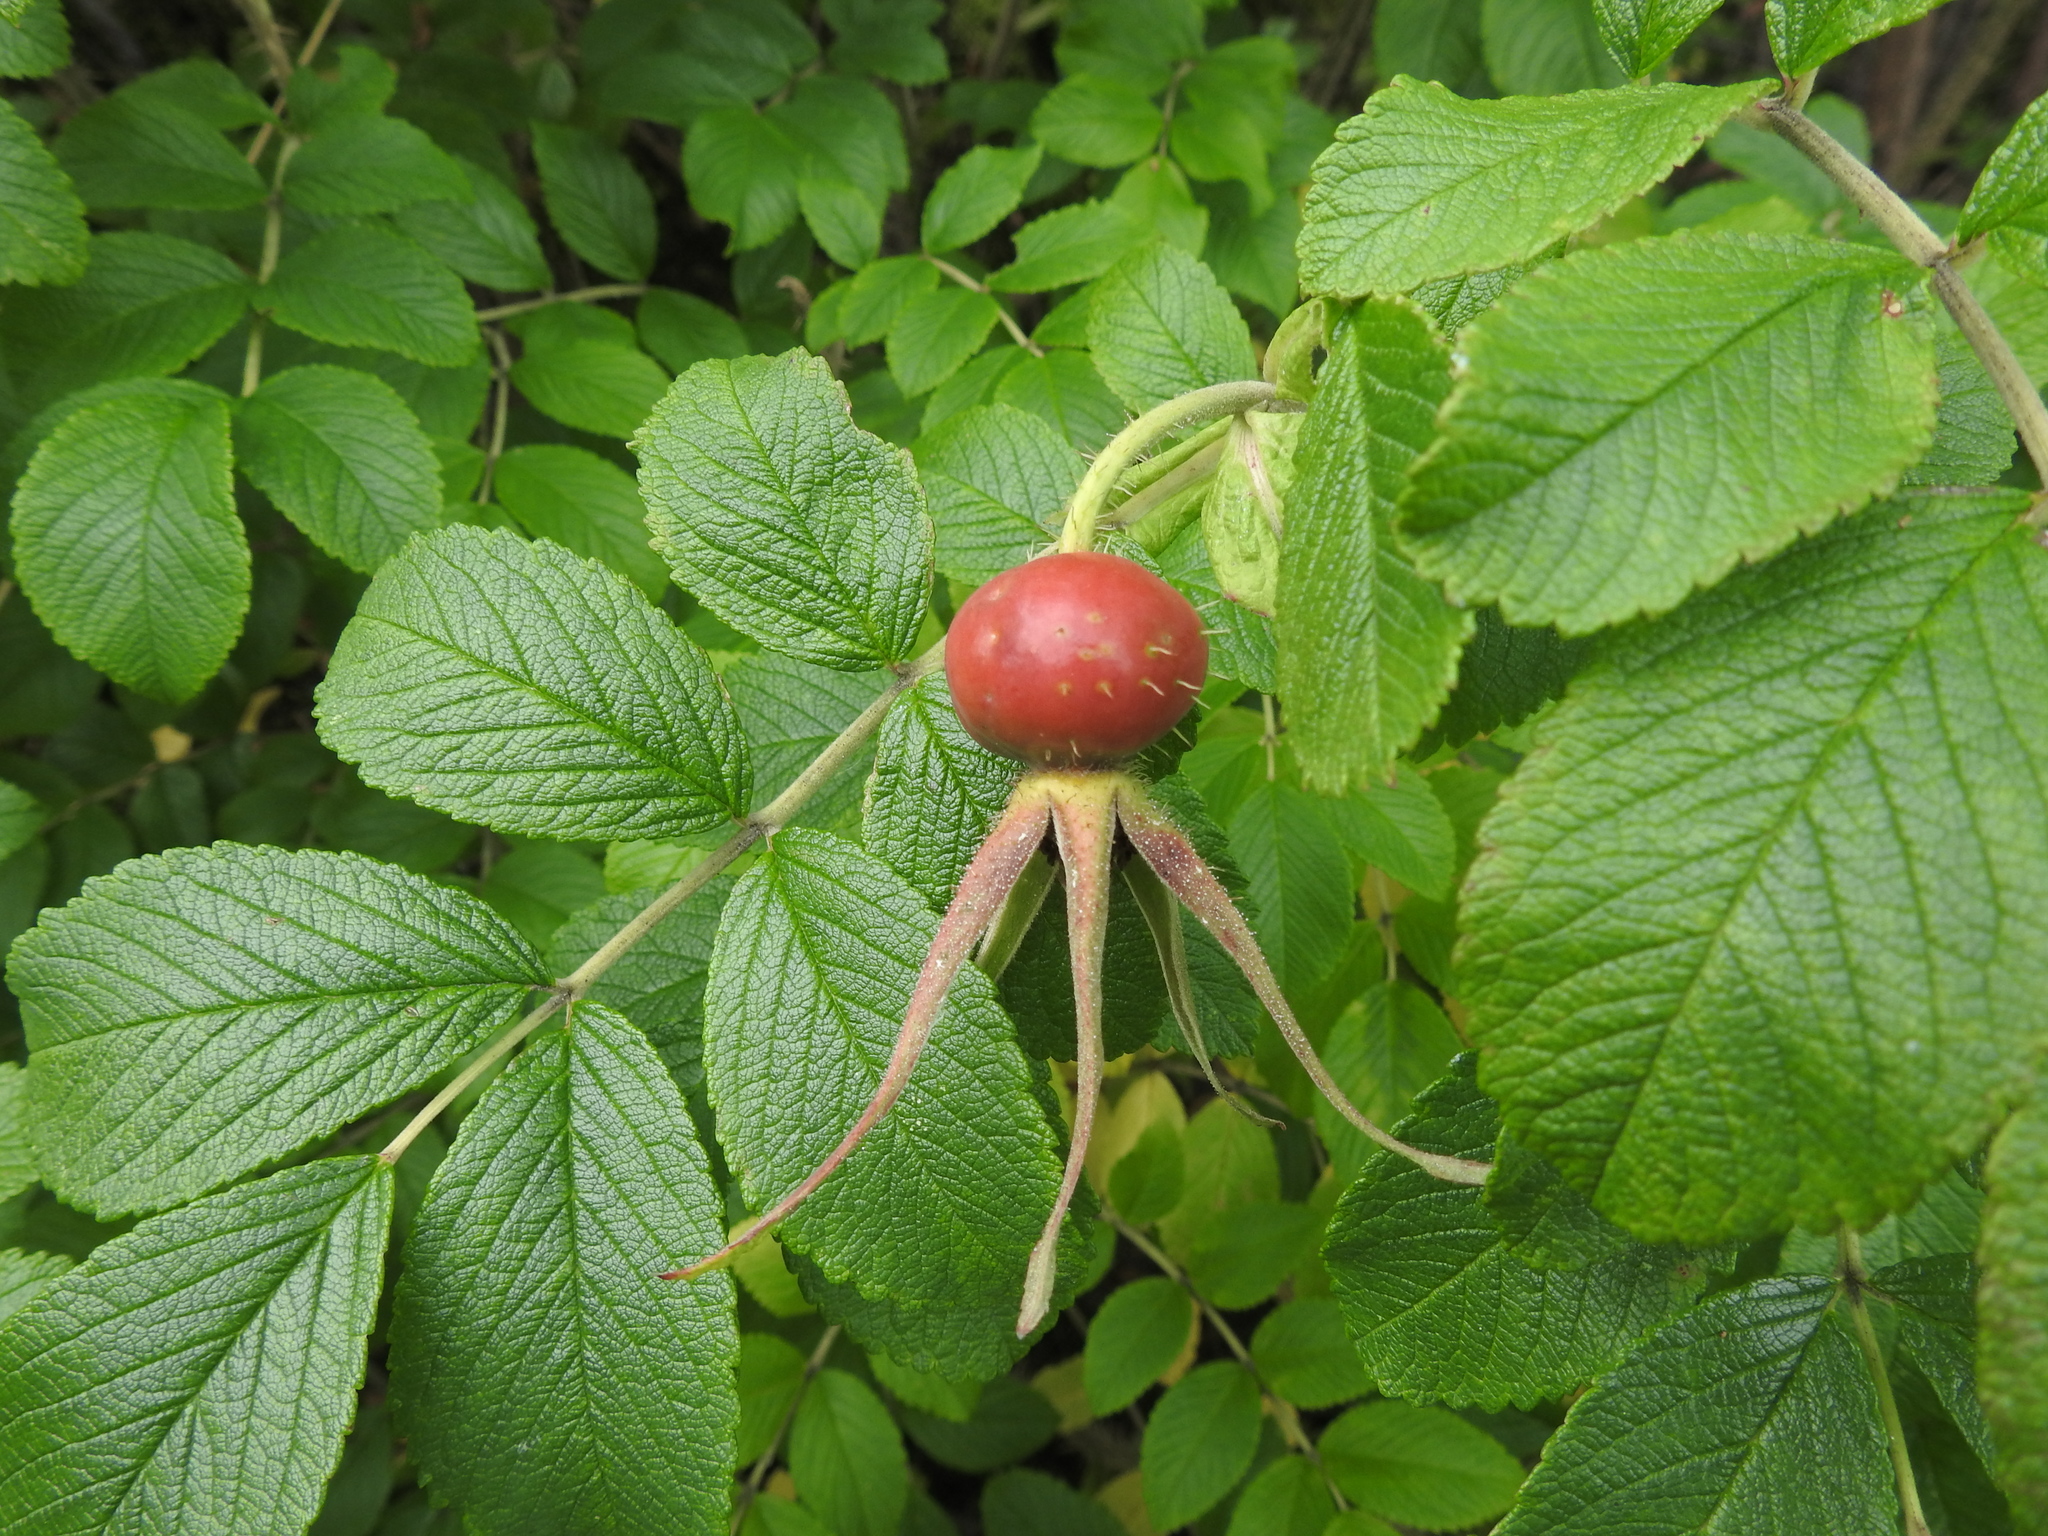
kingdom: Plantae
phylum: Tracheophyta
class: Magnoliopsida
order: Rosales
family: Rosaceae
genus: Rosa
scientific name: Rosa rugosa
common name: Japanese rose
